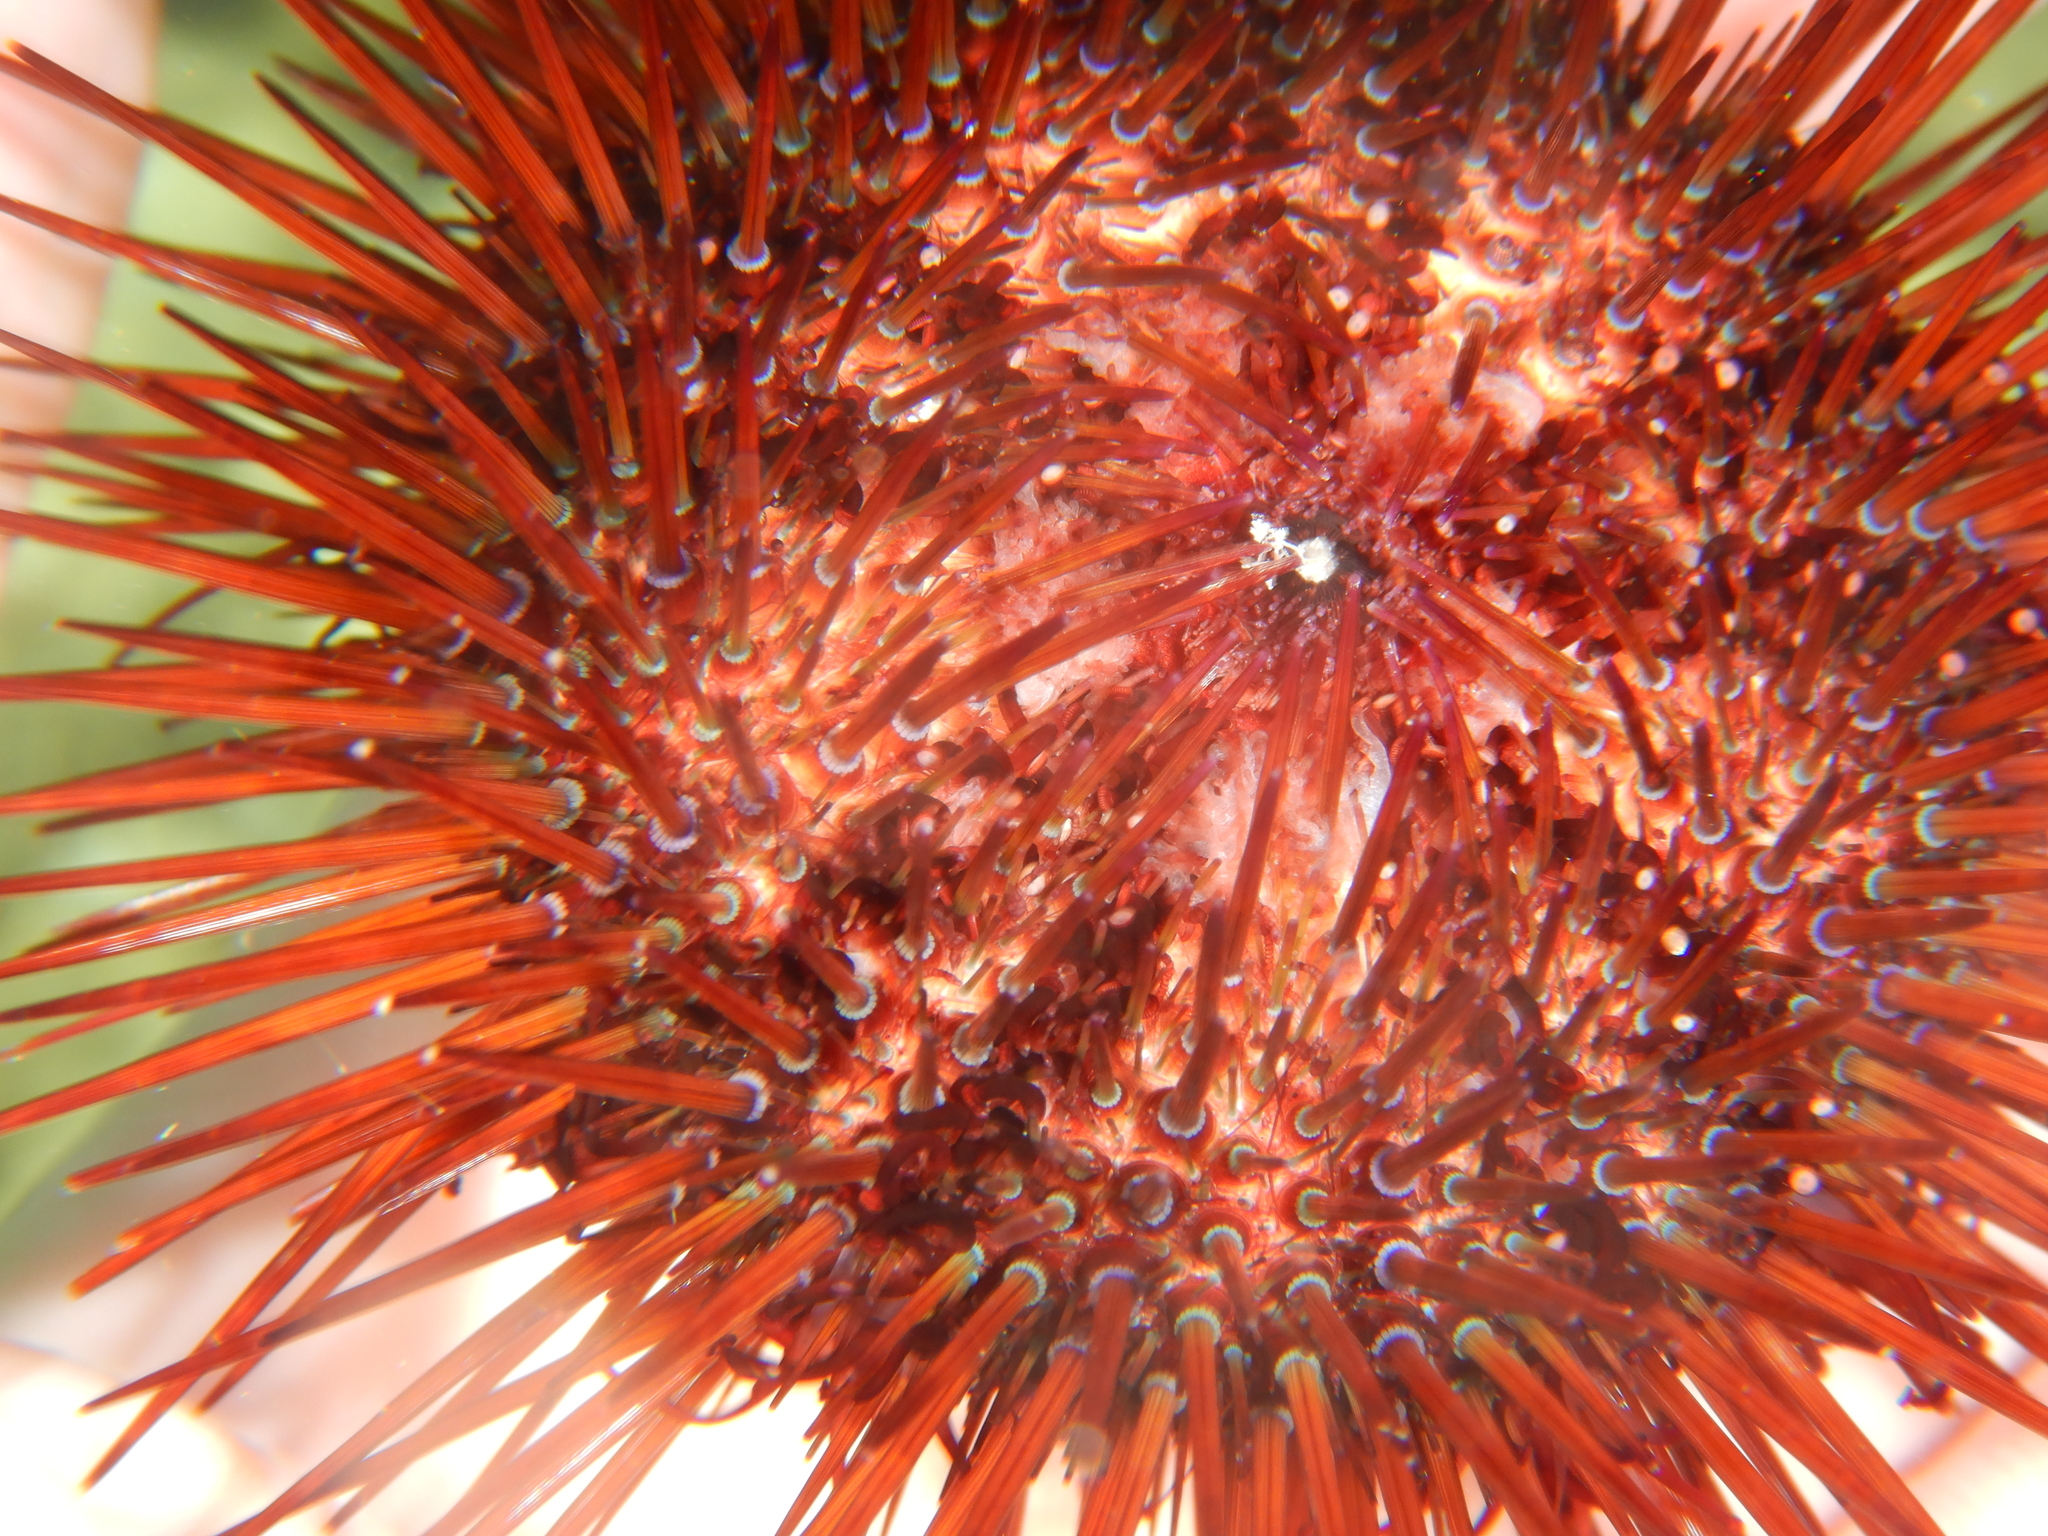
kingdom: Animalia
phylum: Echinodermata
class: Echinoidea
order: Camarodonta
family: Parechinidae
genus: Paracentrotus
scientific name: Paracentrotus lividus
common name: Purple sea urchin
